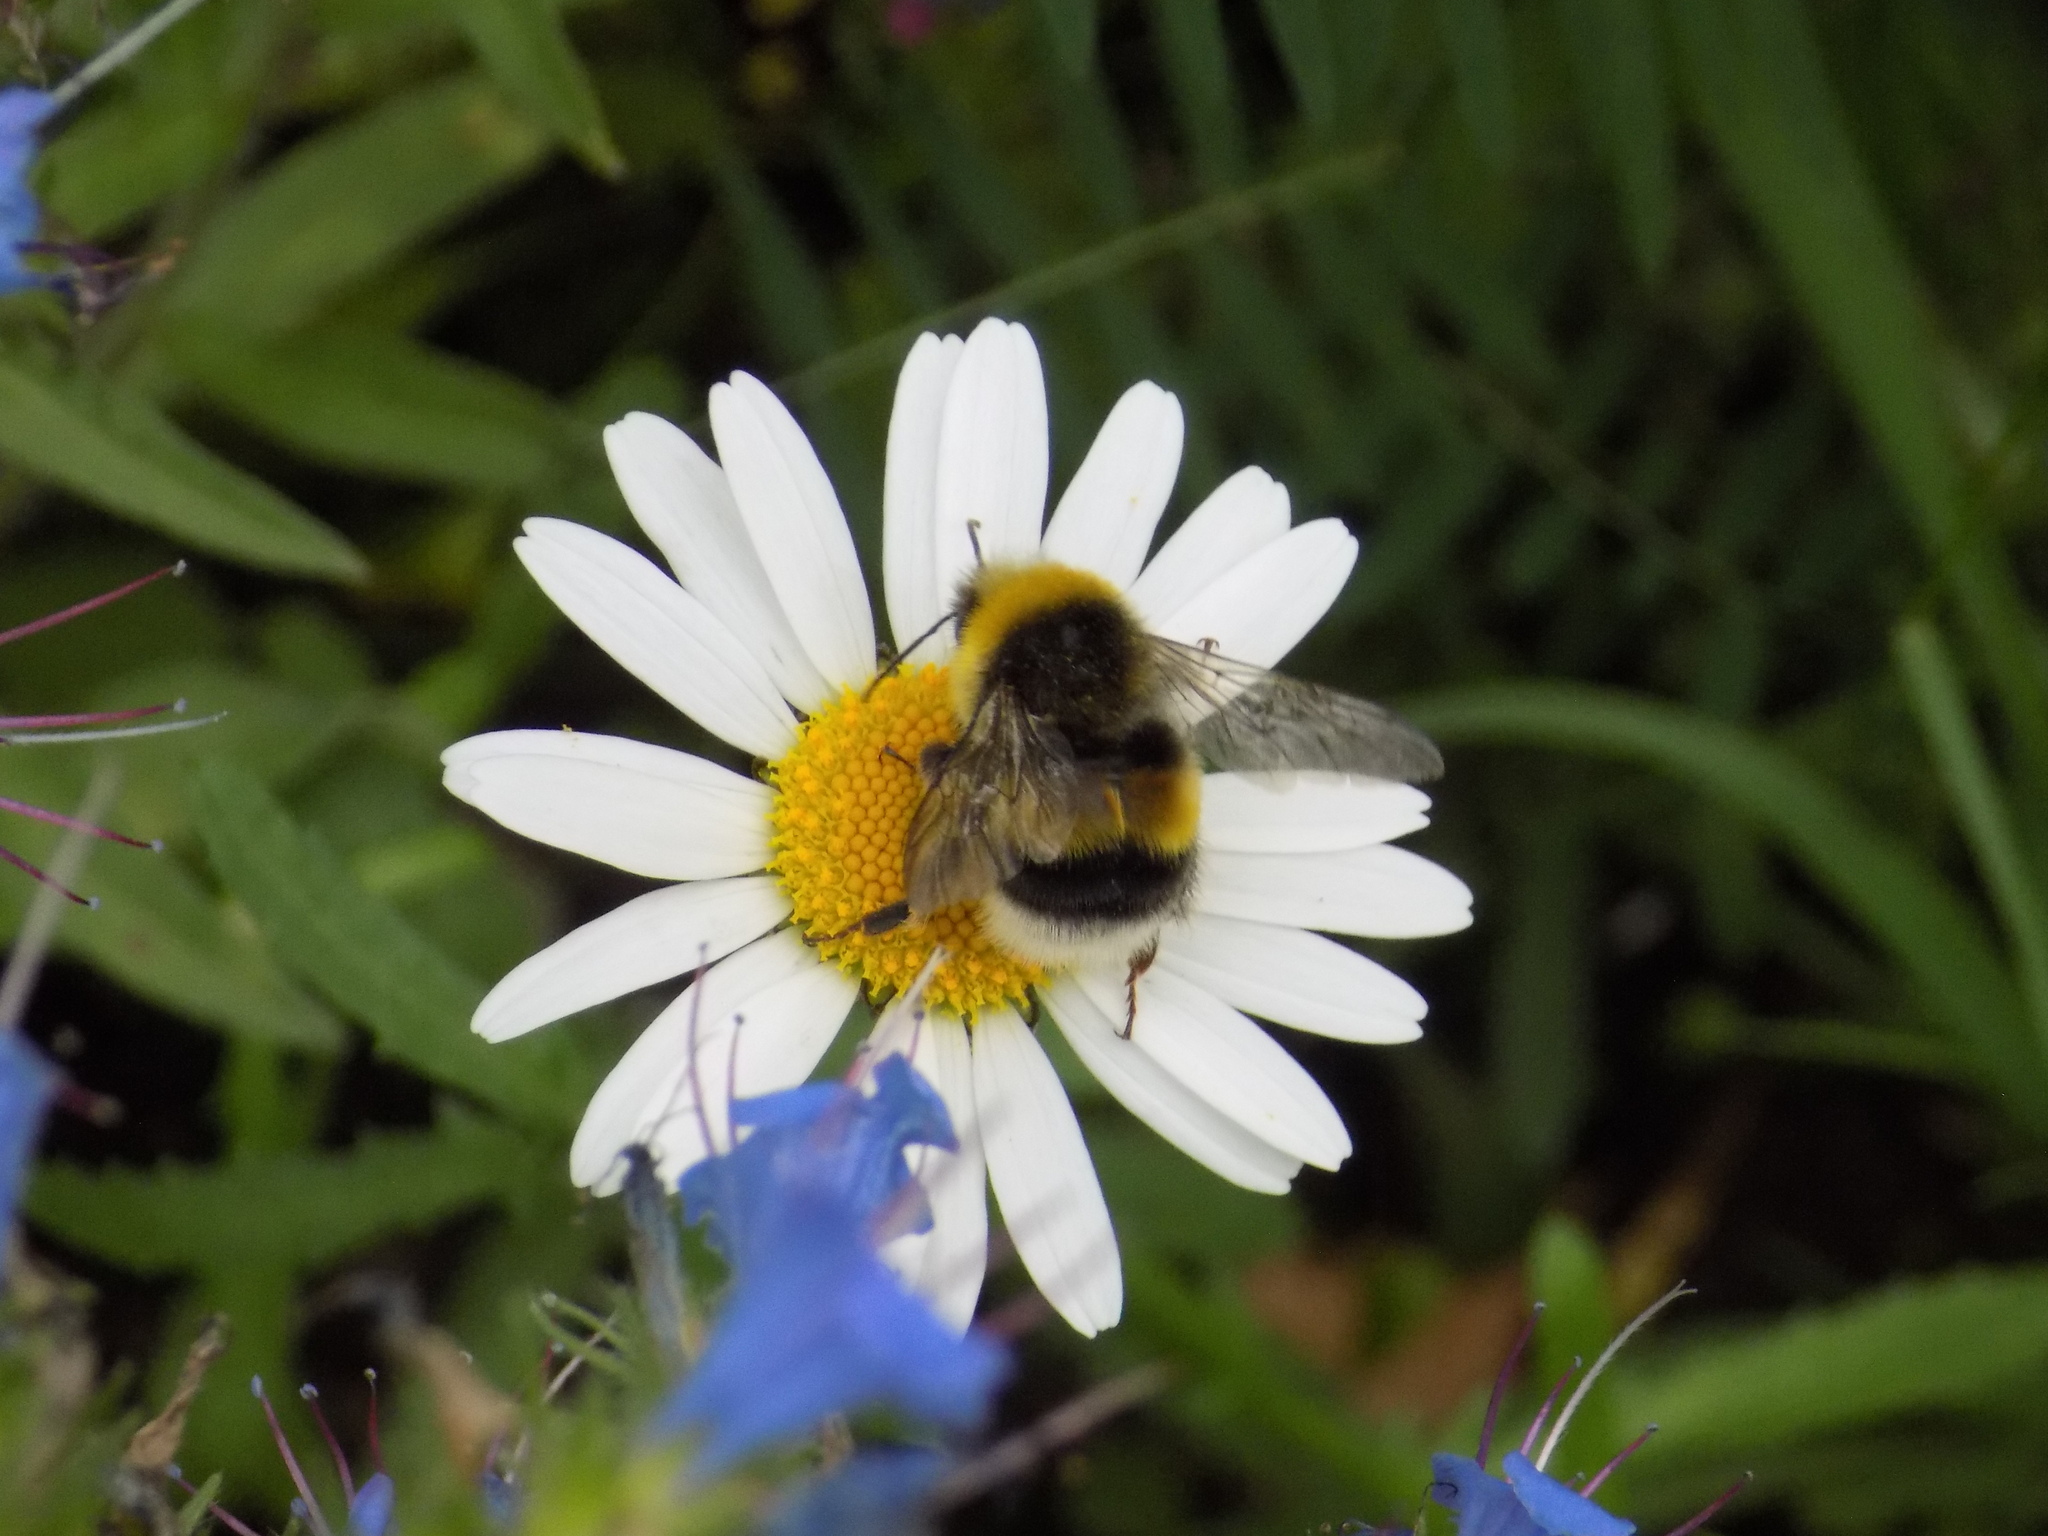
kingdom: Animalia
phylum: Arthropoda
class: Insecta
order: Hymenoptera
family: Apidae
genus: Bombus
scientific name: Bombus
